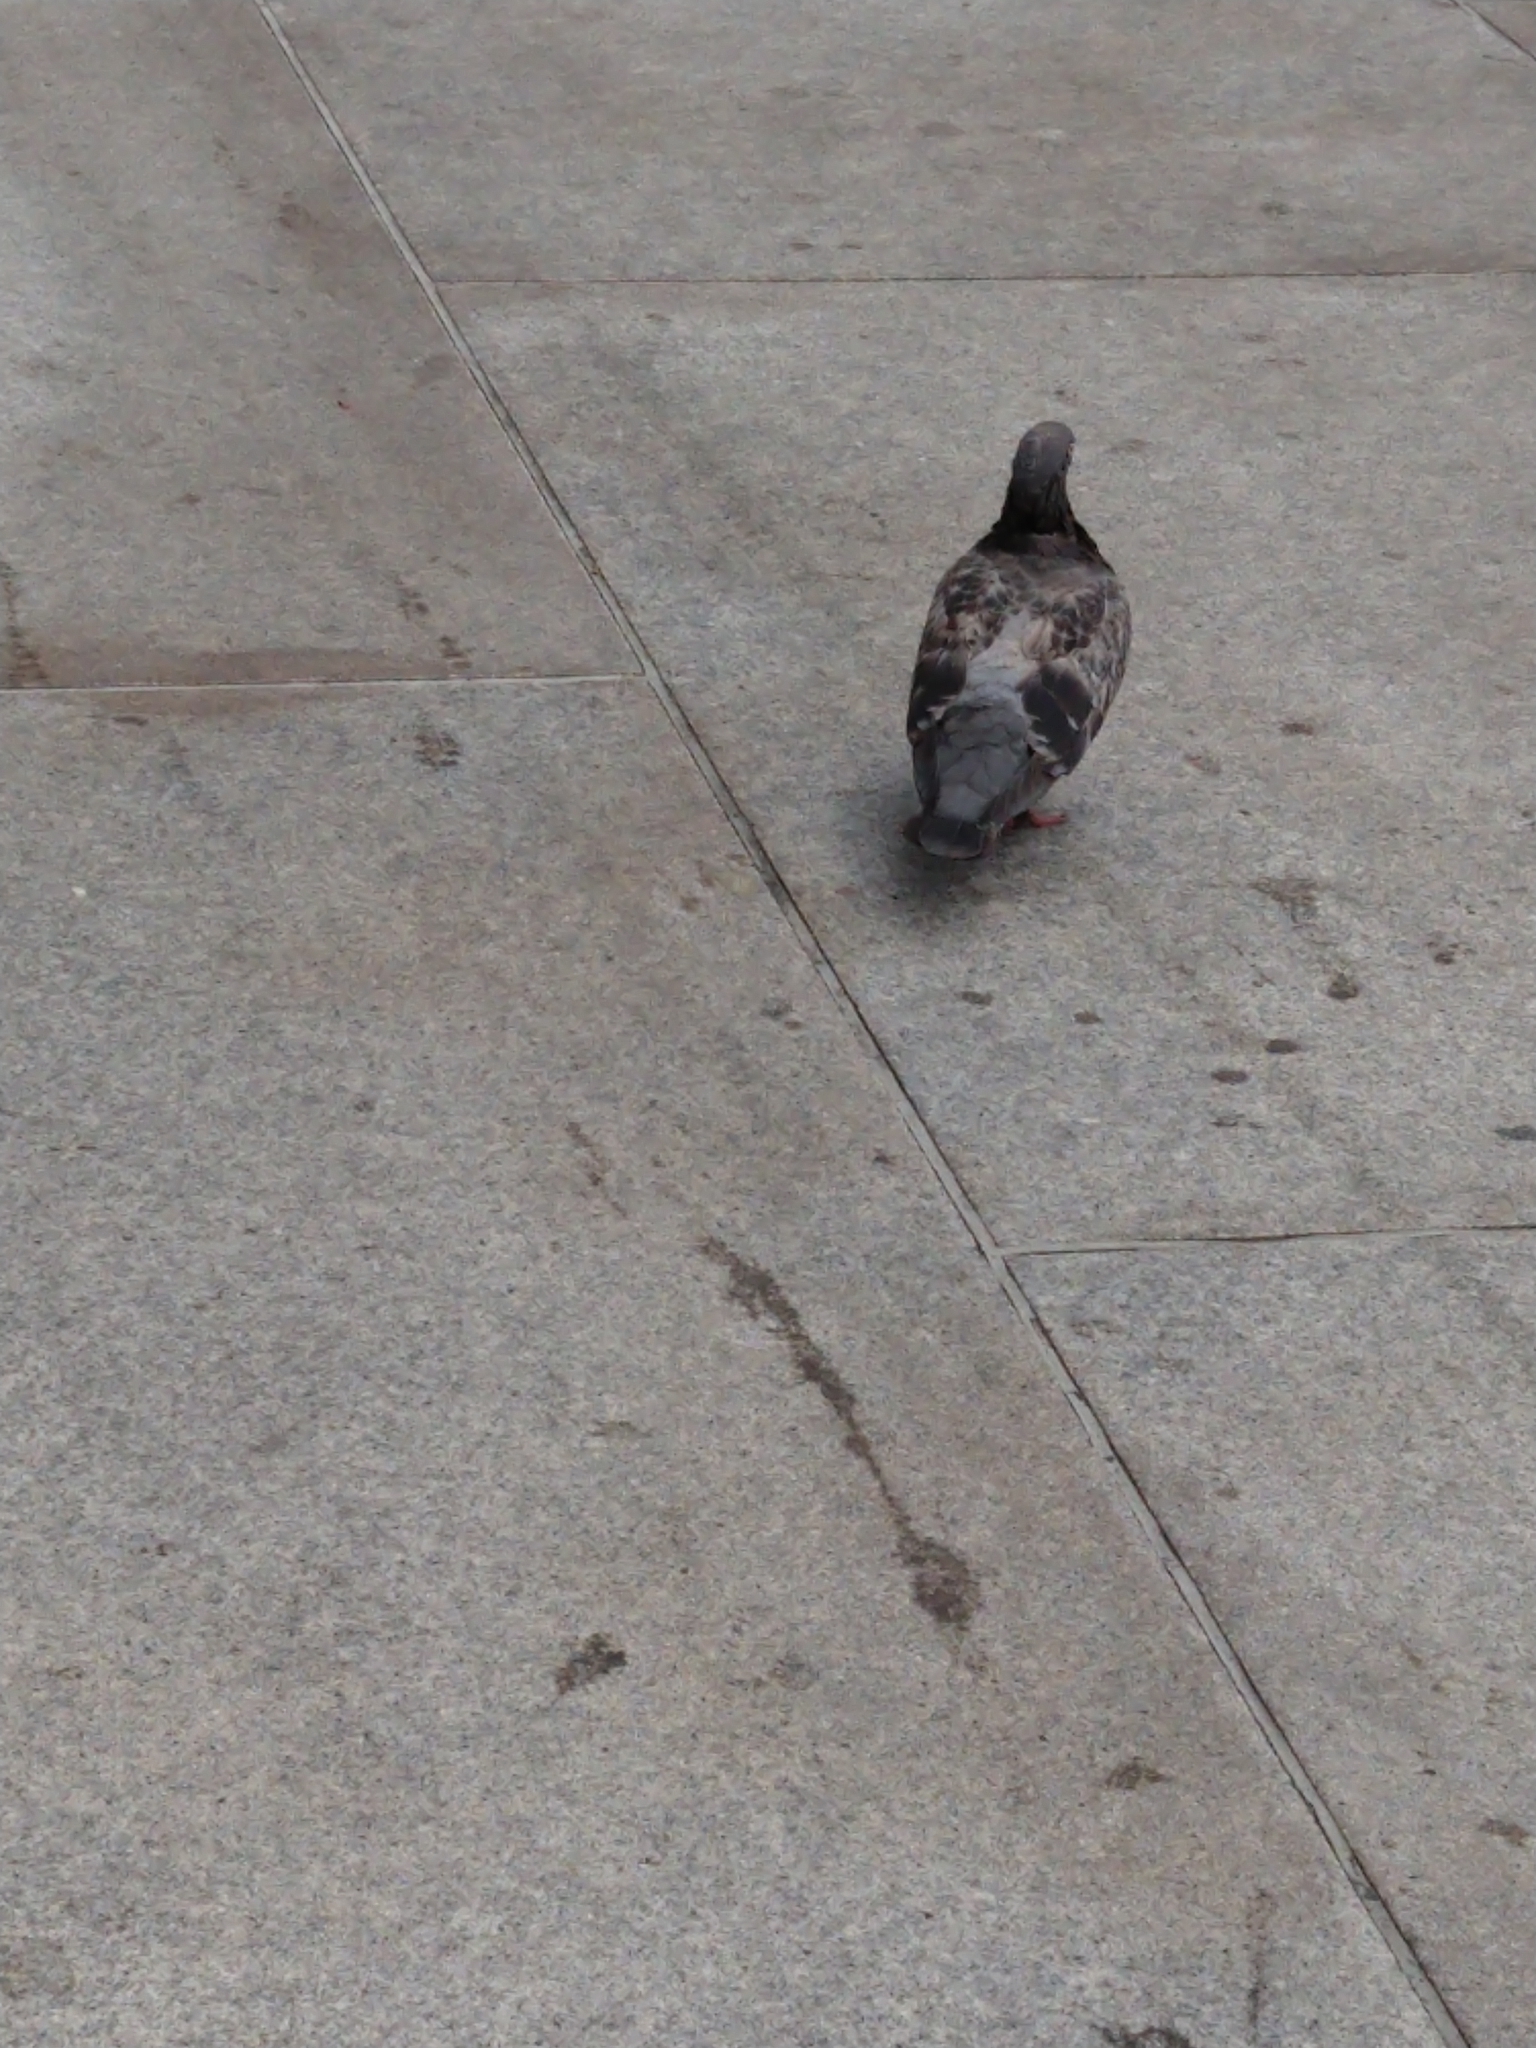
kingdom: Animalia
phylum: Chordata
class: Aves
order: Columbiformes
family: Columbidae
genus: Columba
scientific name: Columba livia
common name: Rock pigeon
